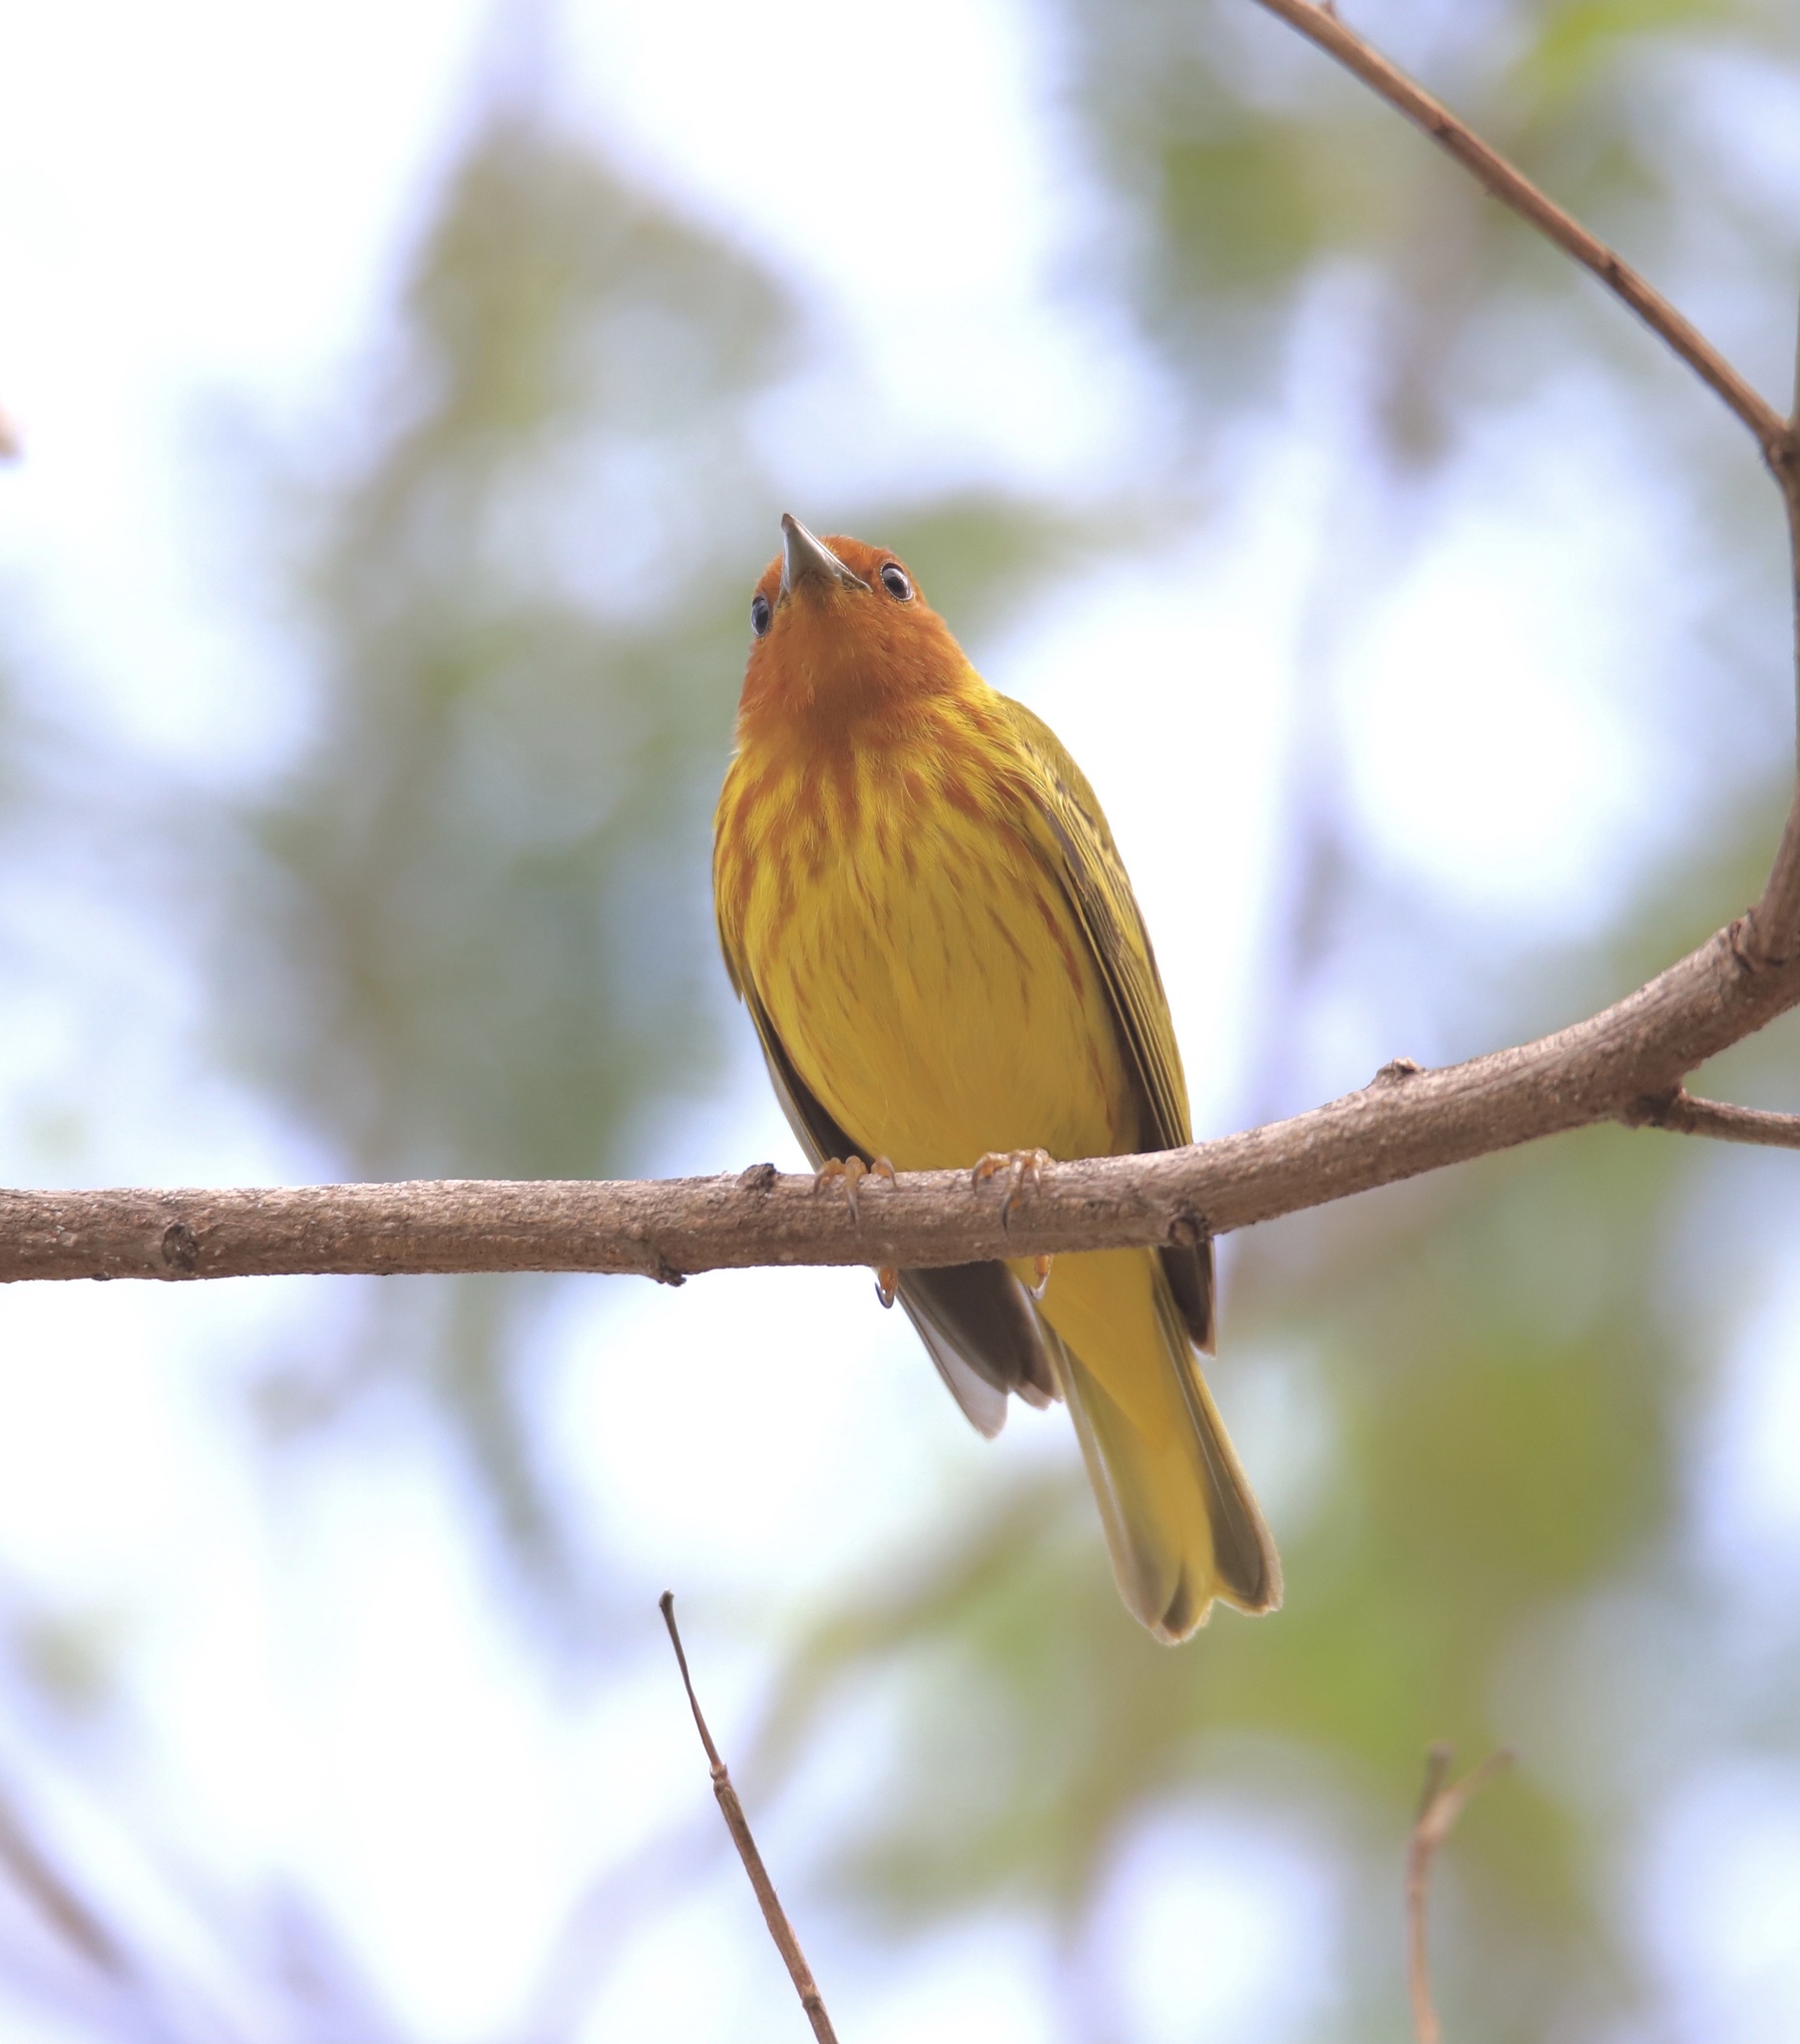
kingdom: Animalia
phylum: Chordata
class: Aves
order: Passeriformes
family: Parulidae
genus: Setophaga
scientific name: Setophaga petechia
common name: Yellow warbler
